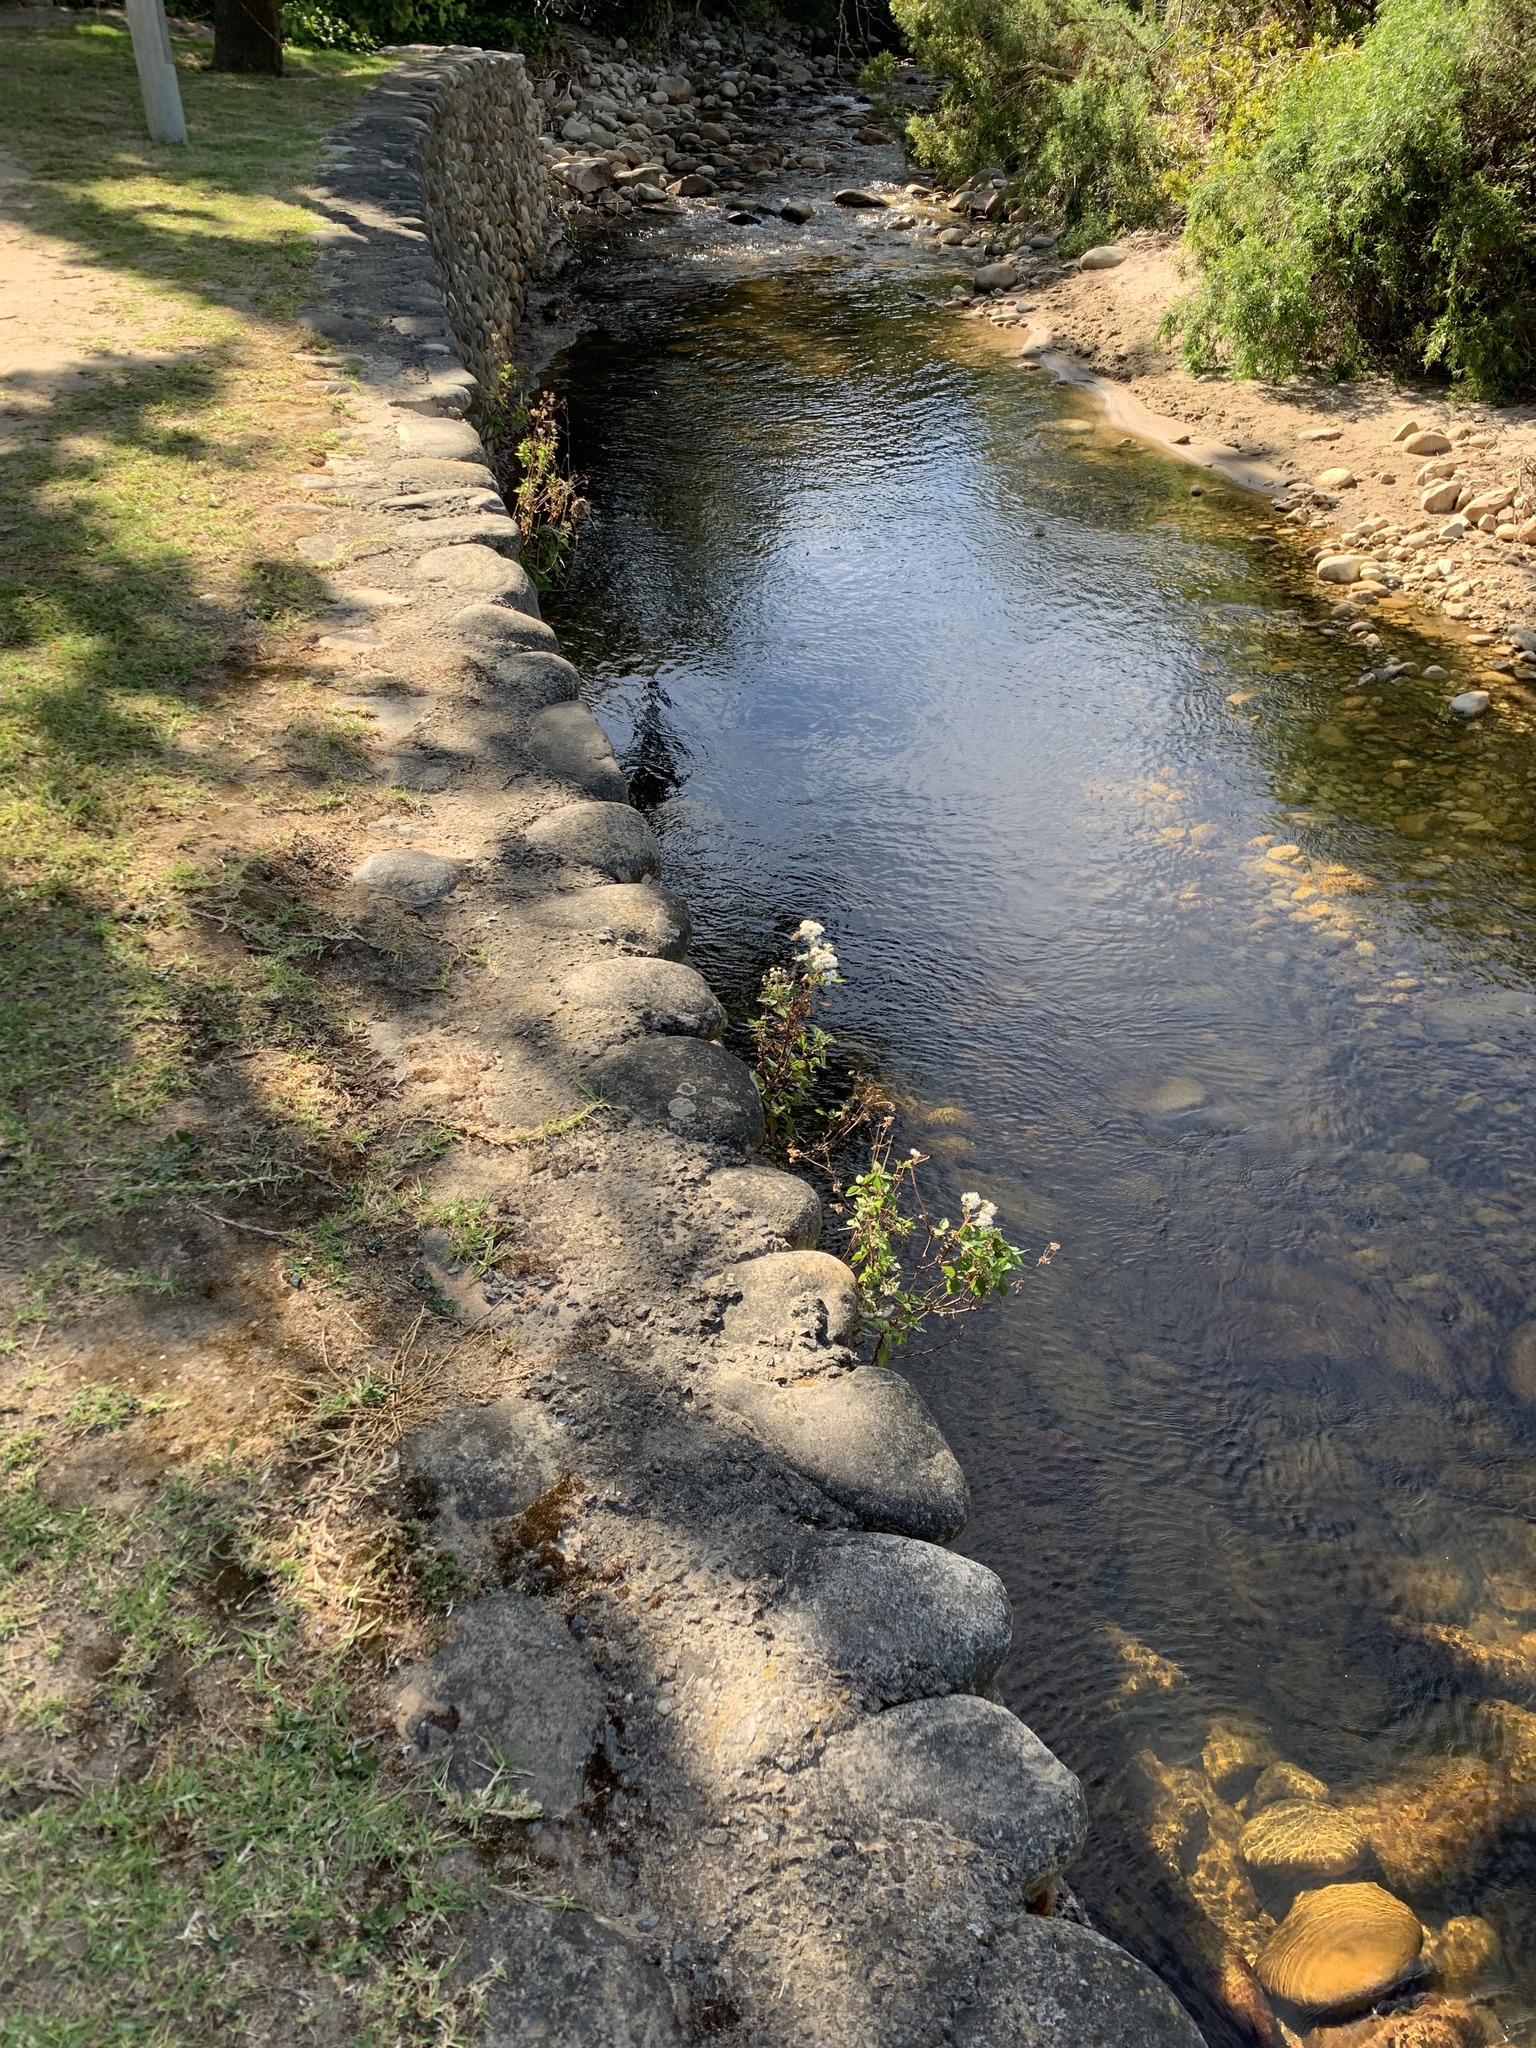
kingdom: Plantae
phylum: Tracheophyta
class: Magnoliopsida
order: Asterales
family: Asteraceae
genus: Ageratina
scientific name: Ageratina adenophora
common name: Sticky snakeroot
